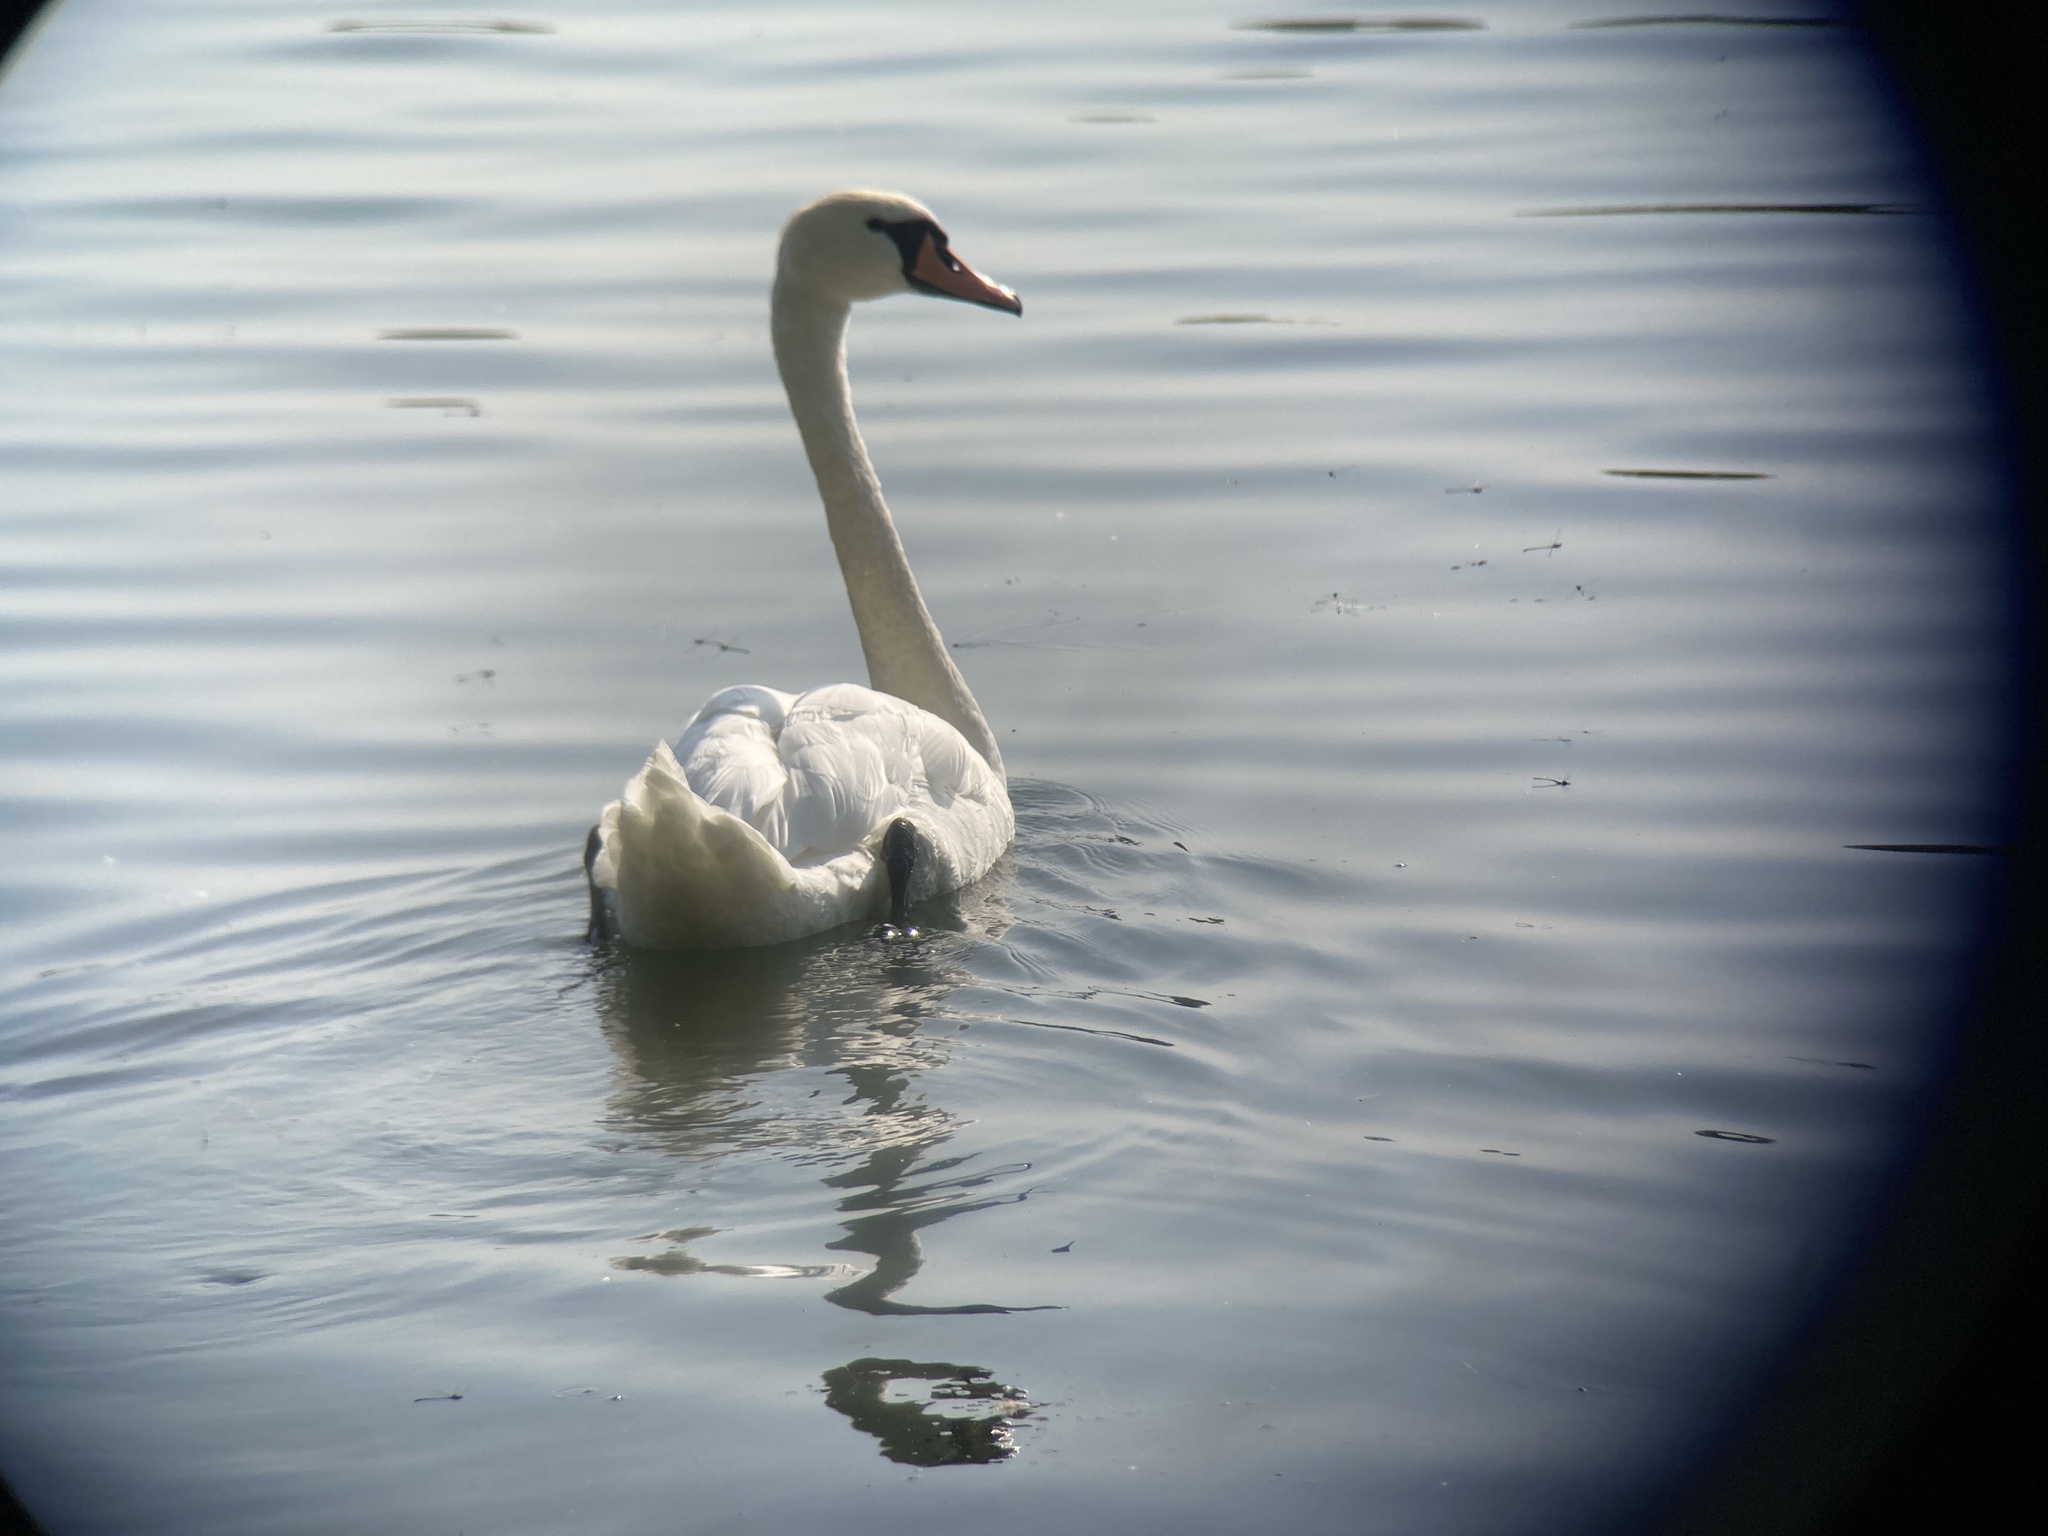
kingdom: Animalia
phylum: Chordata
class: Aves
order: Anseriformes
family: Anatidae
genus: Cygnus
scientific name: Cygnus olor
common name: Mute swan
